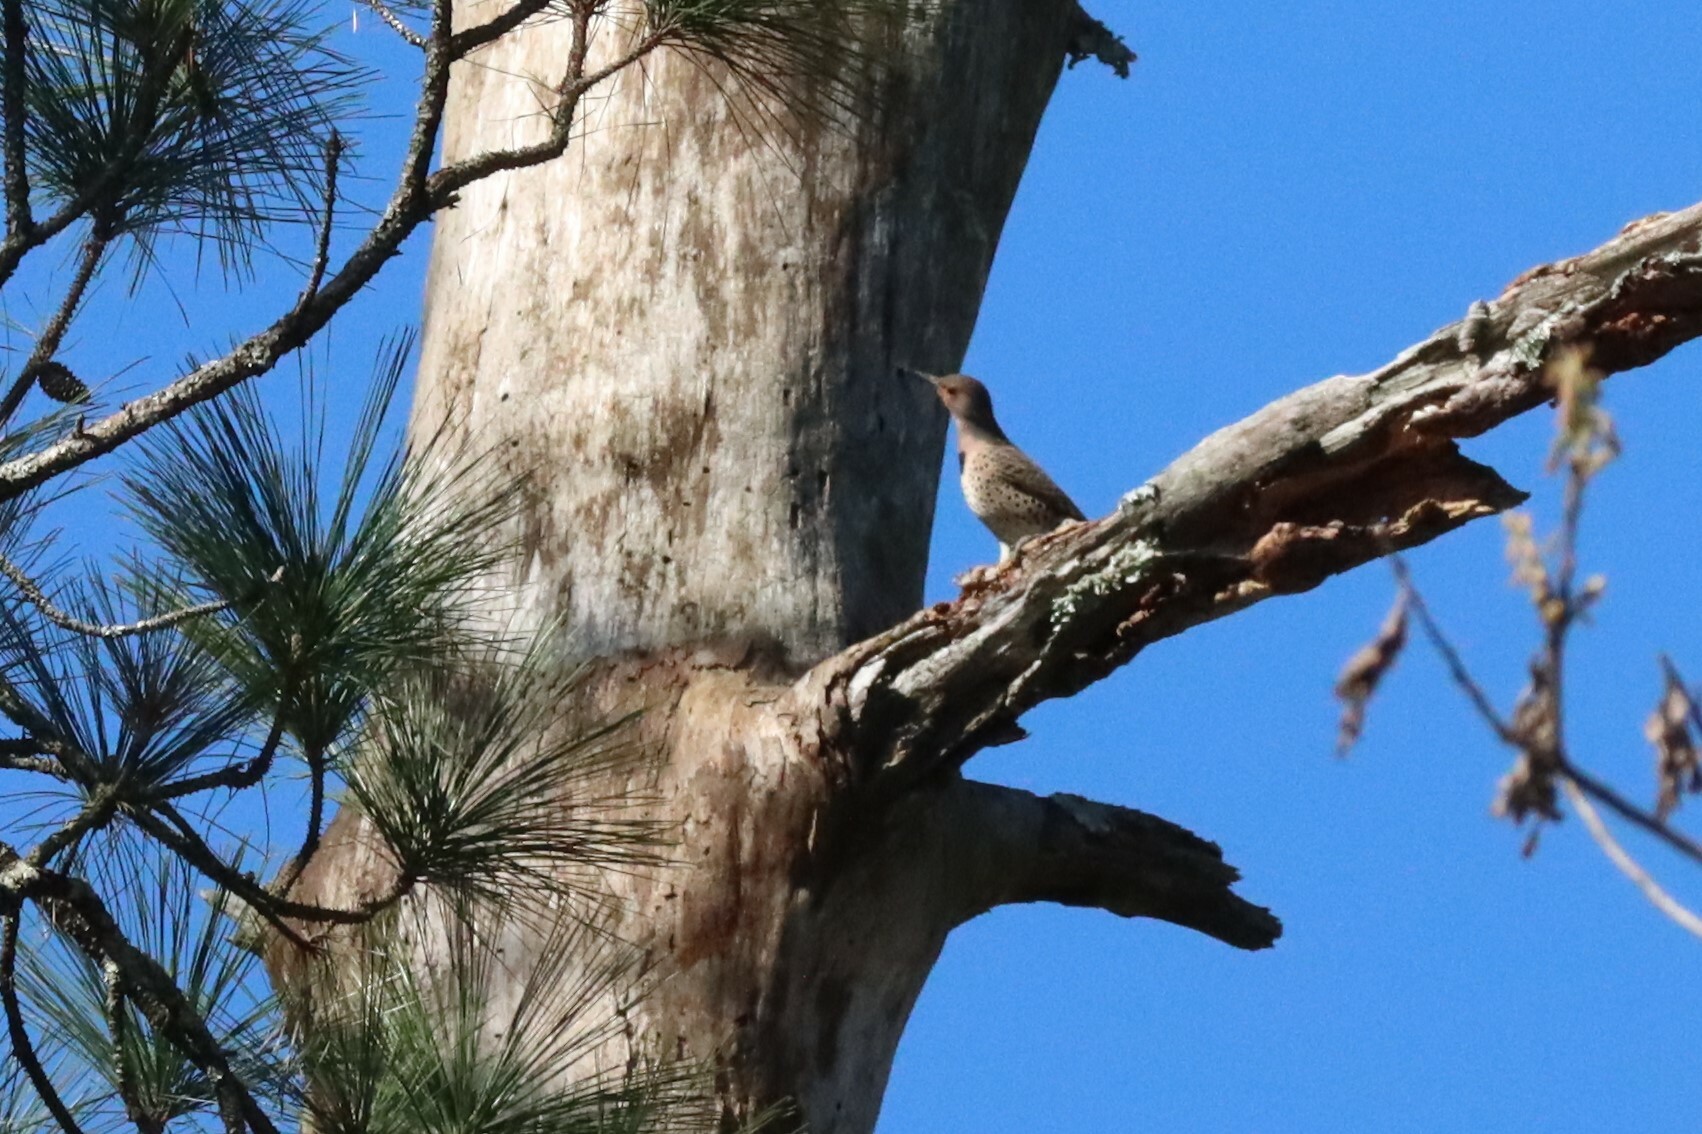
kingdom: Animalia
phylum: Chordata
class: Aves
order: Piciformes
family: Picidae
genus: Colaptes
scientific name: Colaptes auratus
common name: Northern flicker
